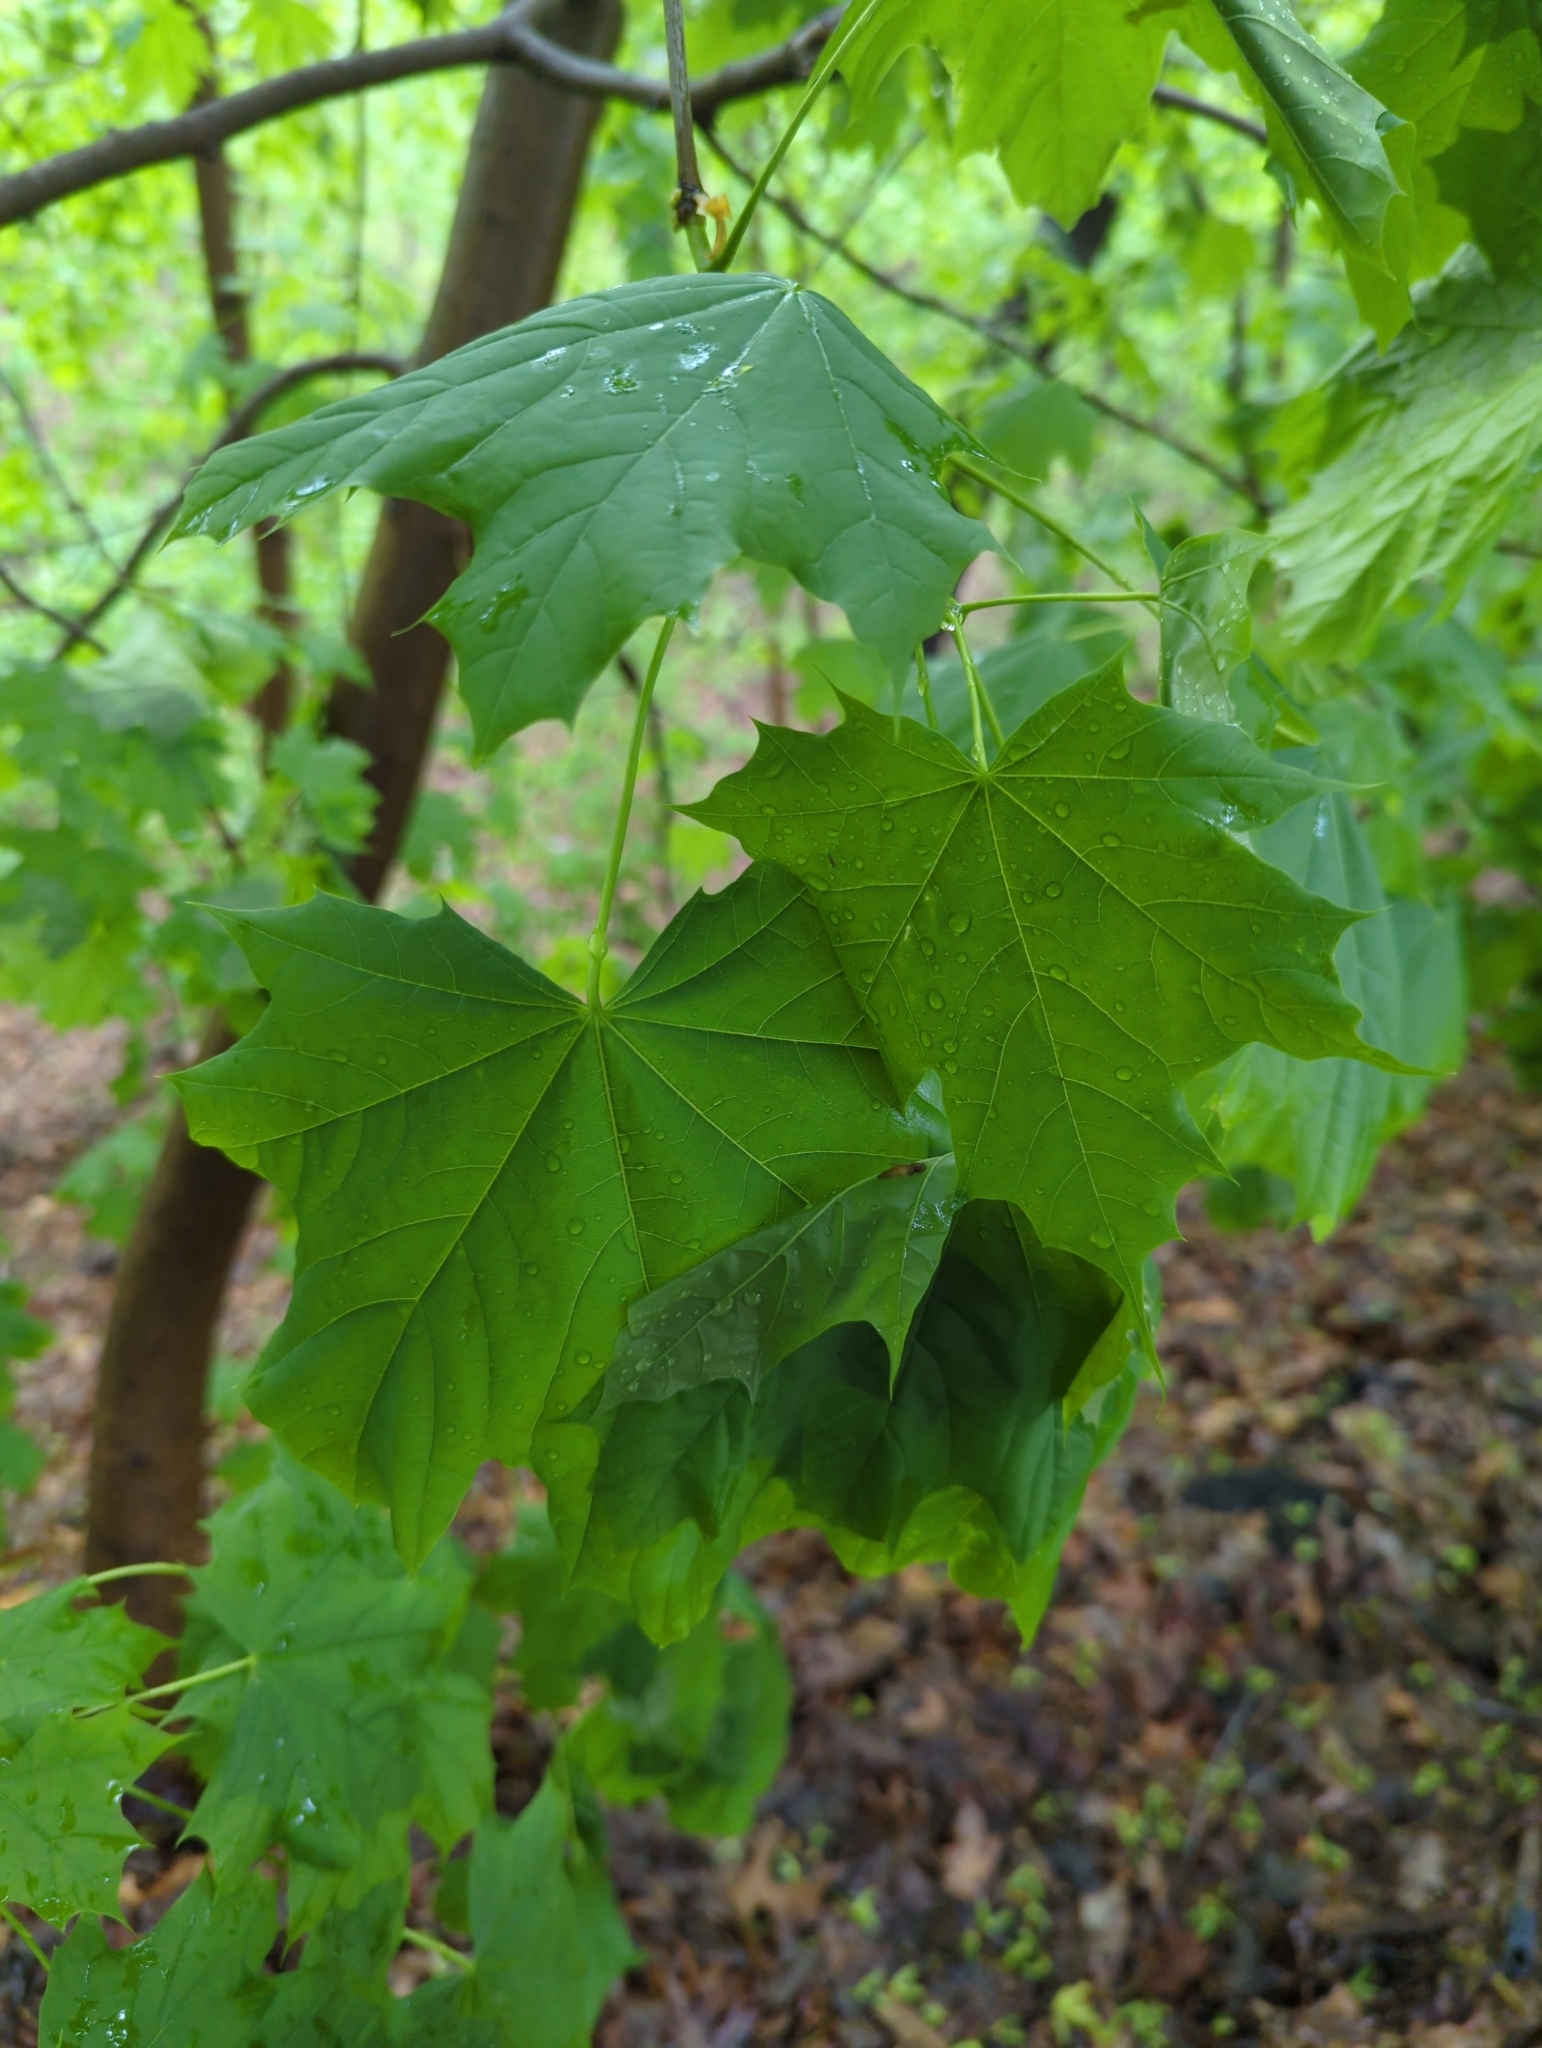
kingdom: Plantae
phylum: Tracheophyta
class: Magnoliopsida
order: Sapindales
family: Sapindaceae
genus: Acer
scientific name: Acer platanoides
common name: Norway maple
